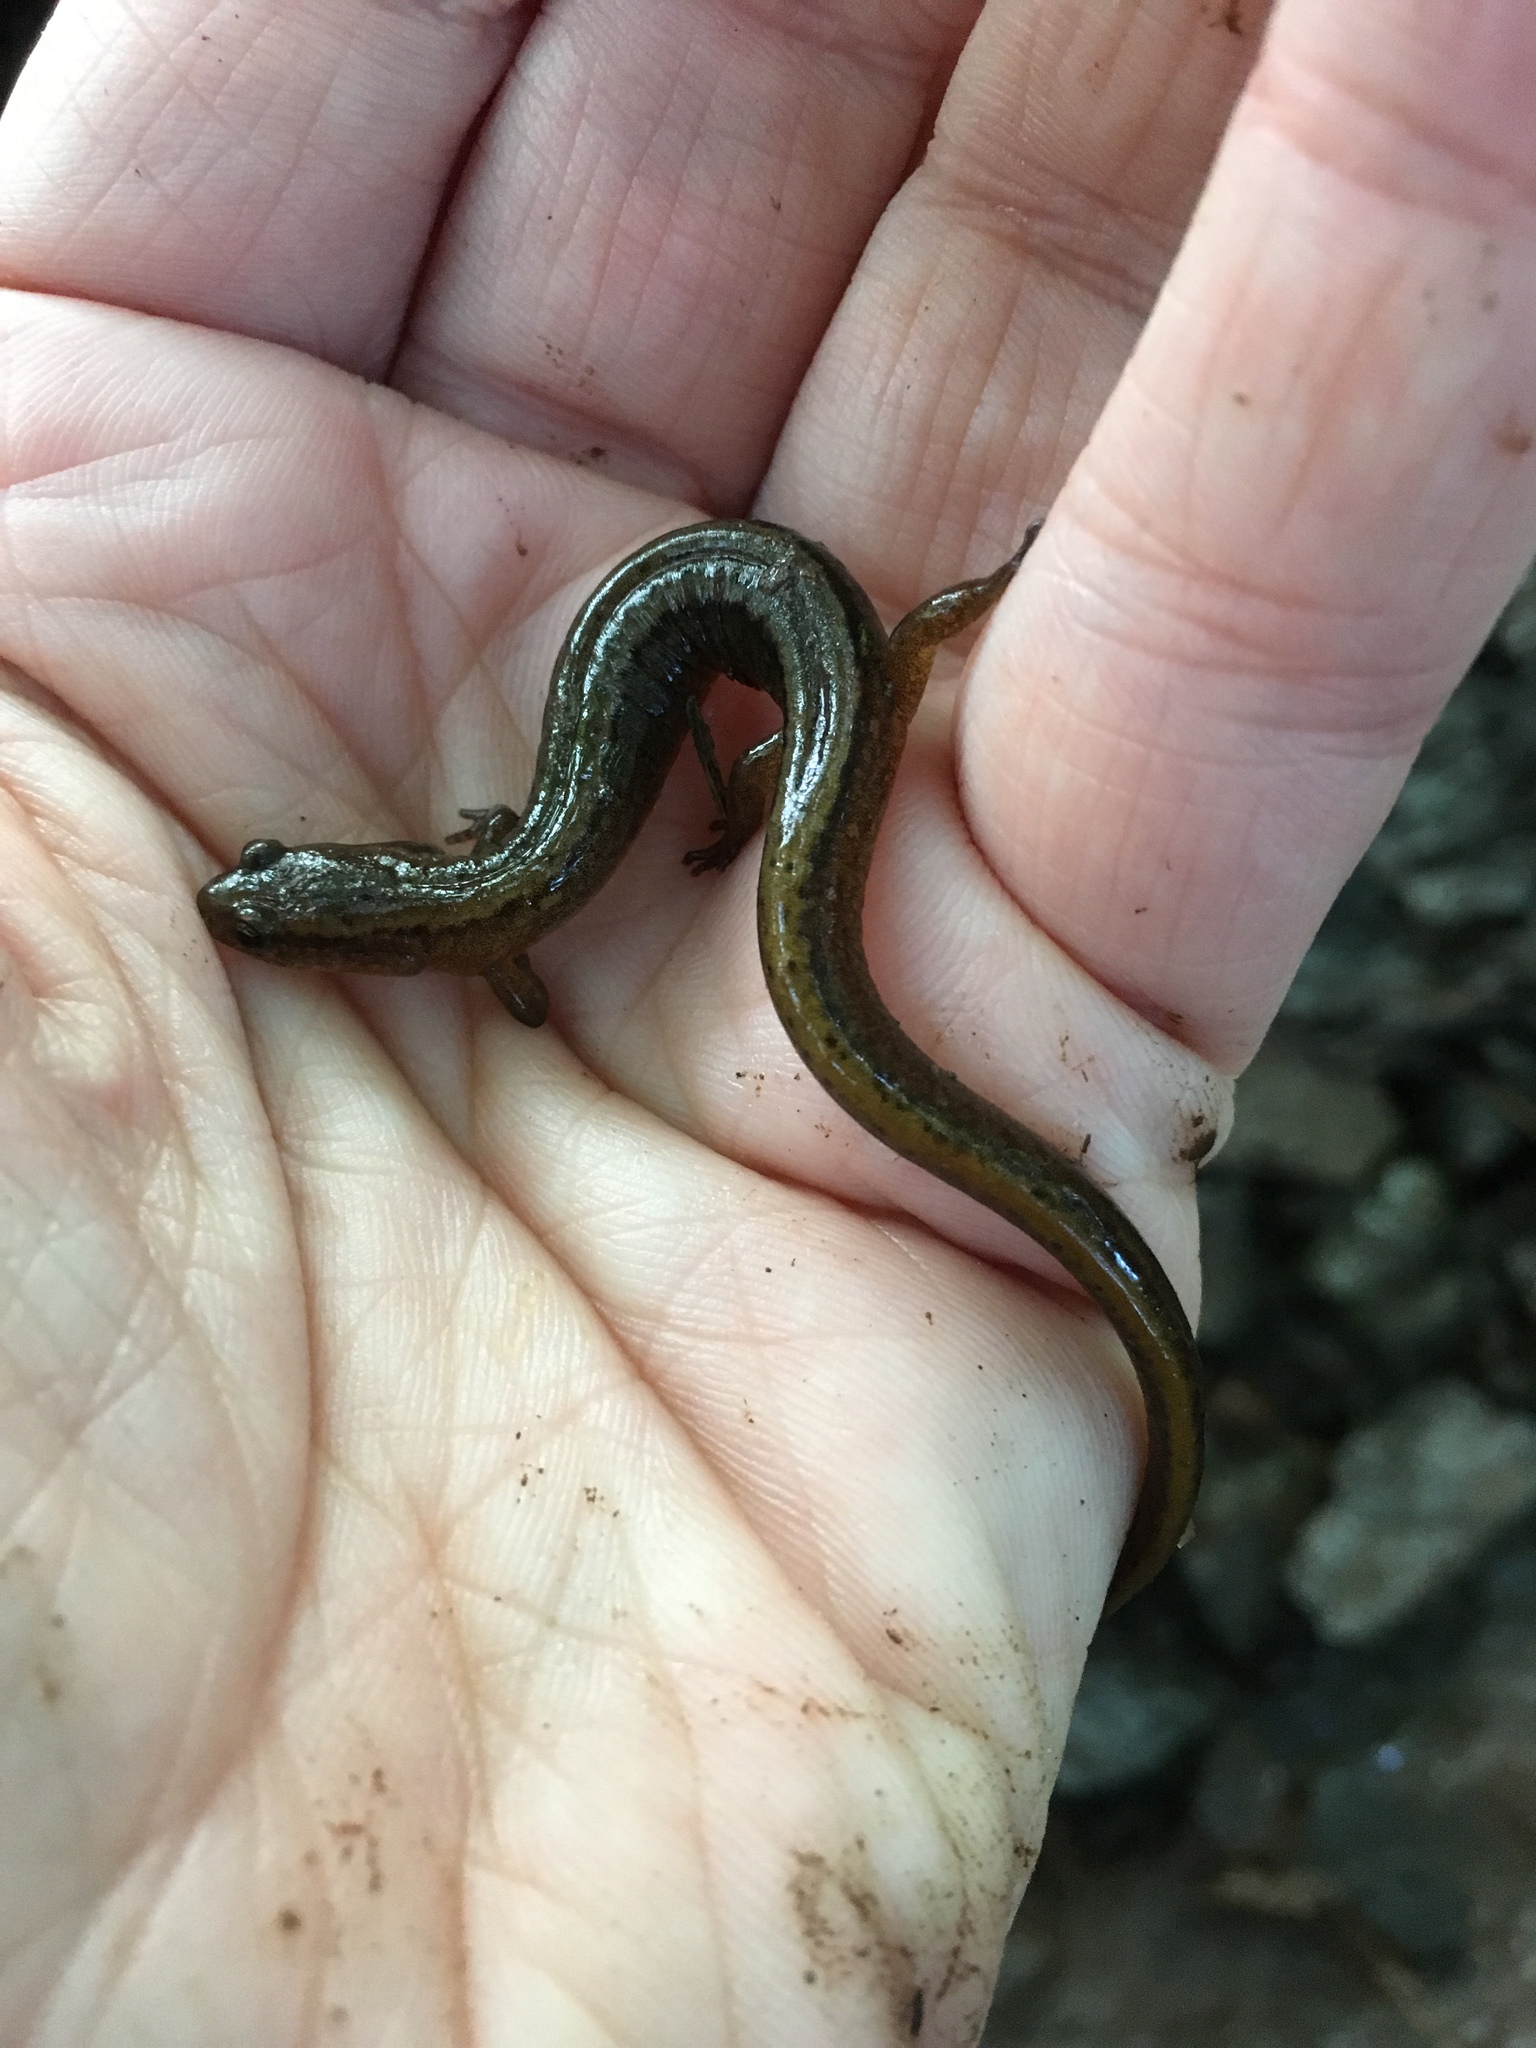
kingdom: Animalia
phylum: Chordata
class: Amphibia
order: Caudata
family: Plethodontidae
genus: Eurycea
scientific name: Eurycea bislineata
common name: Northern two-lined salamander
